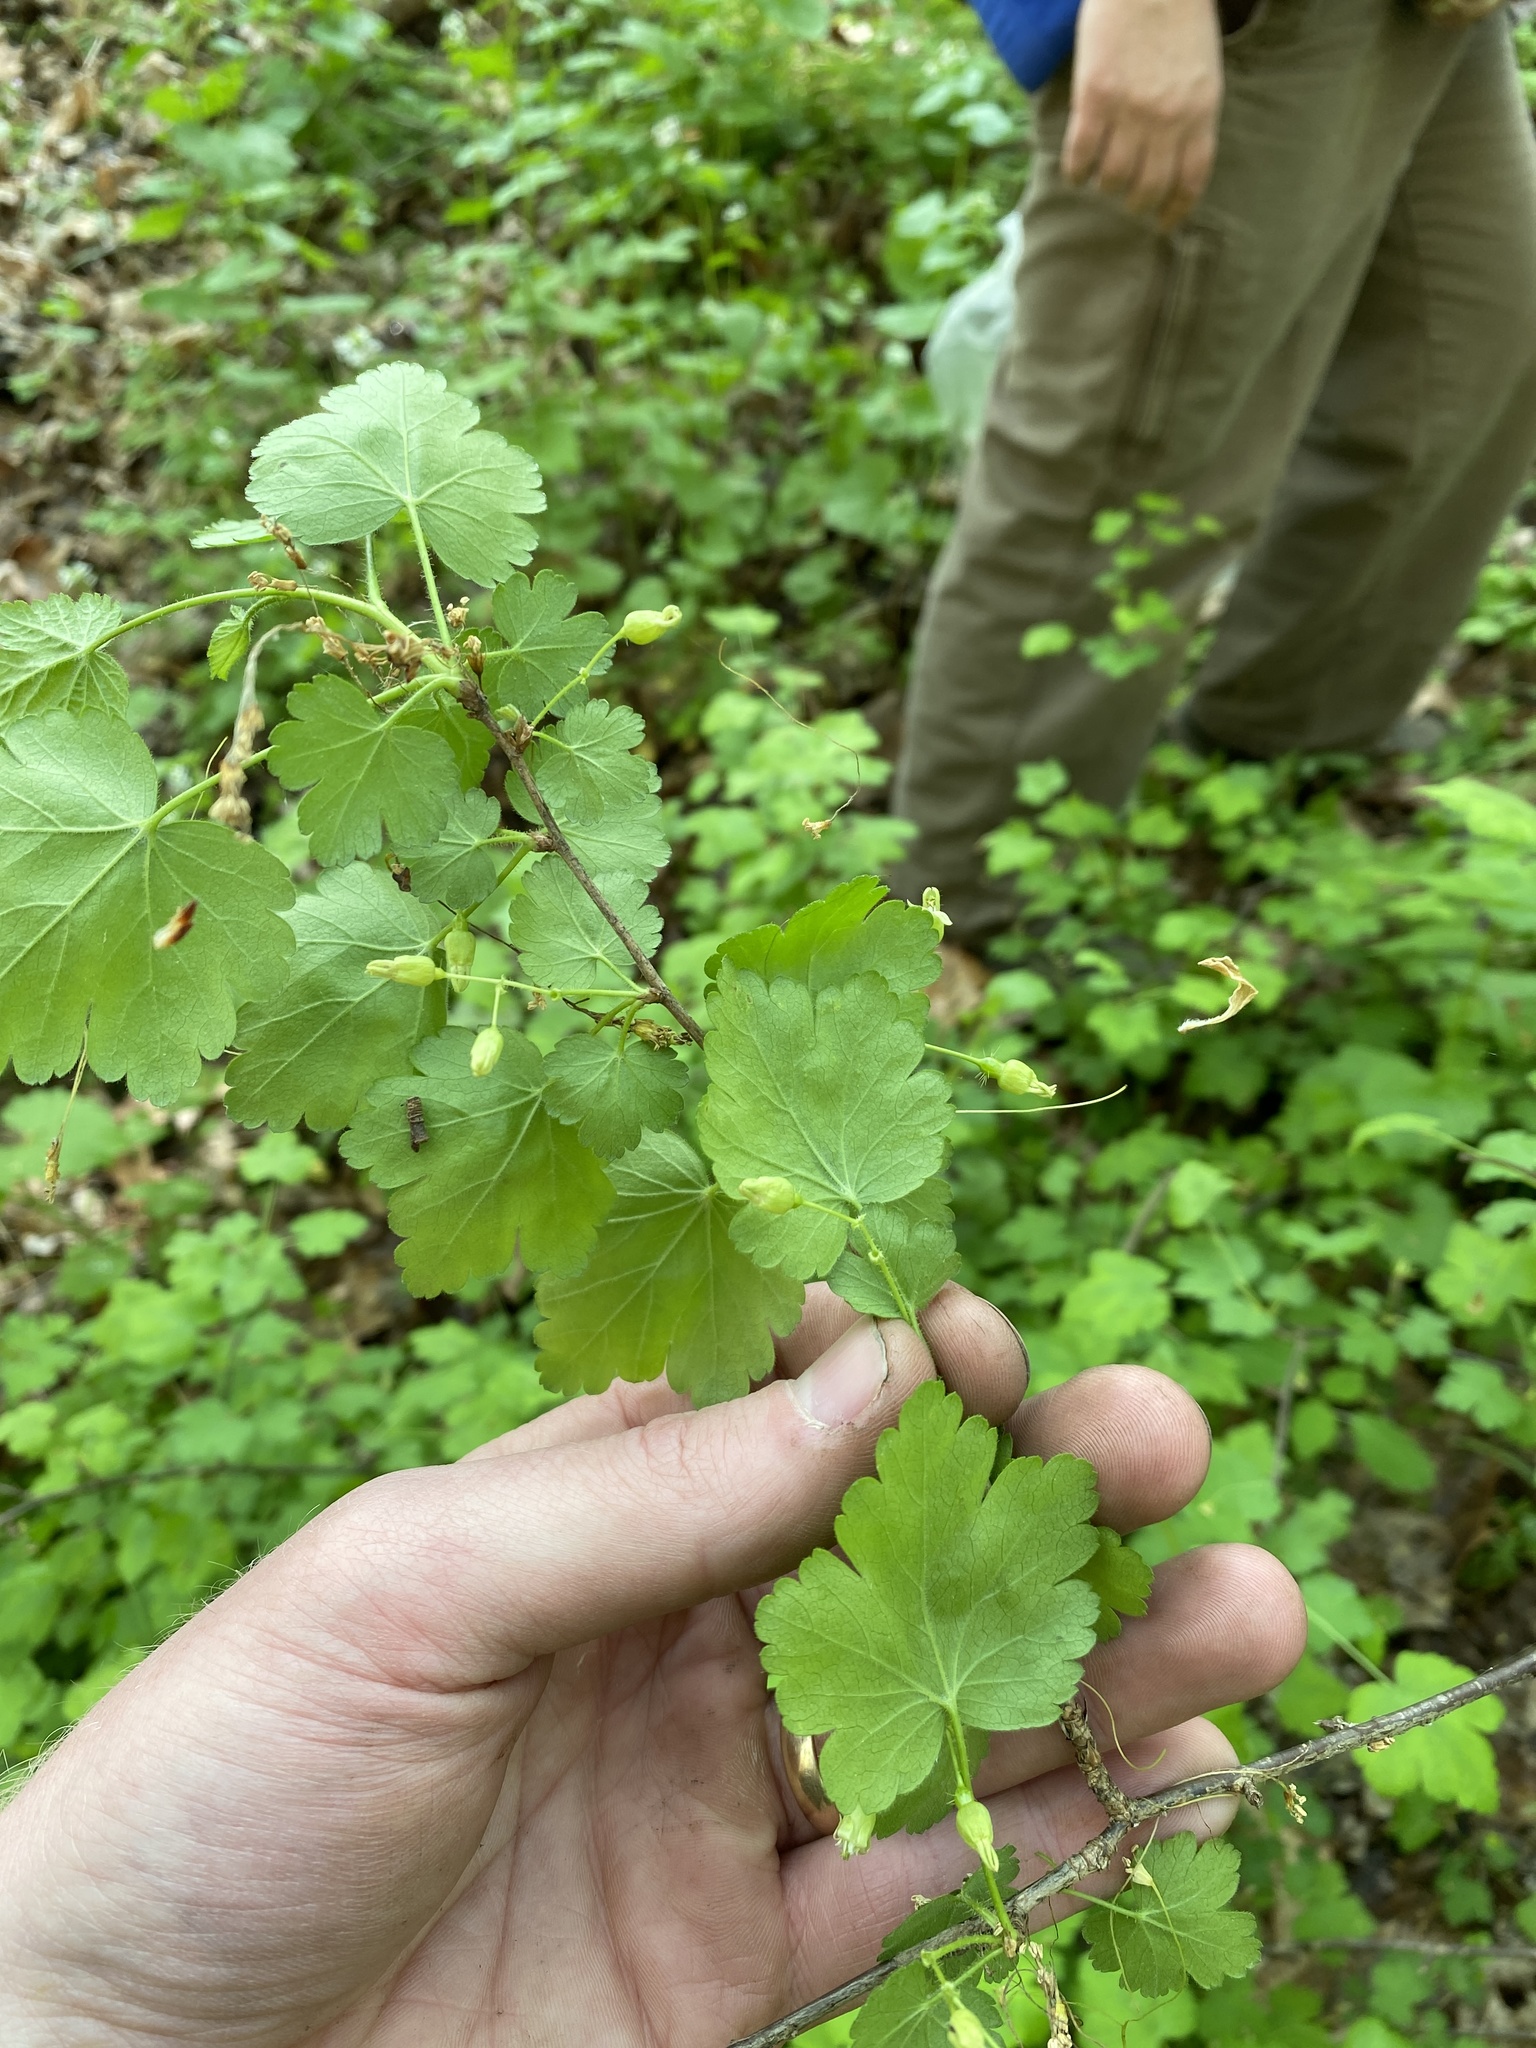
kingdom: Plantae
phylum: Tracheophyta
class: Magnoliopsida
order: Saxifragales
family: Grossulariaceae
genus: Ribes
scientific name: Ribes cynosbati
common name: American gooseberry
